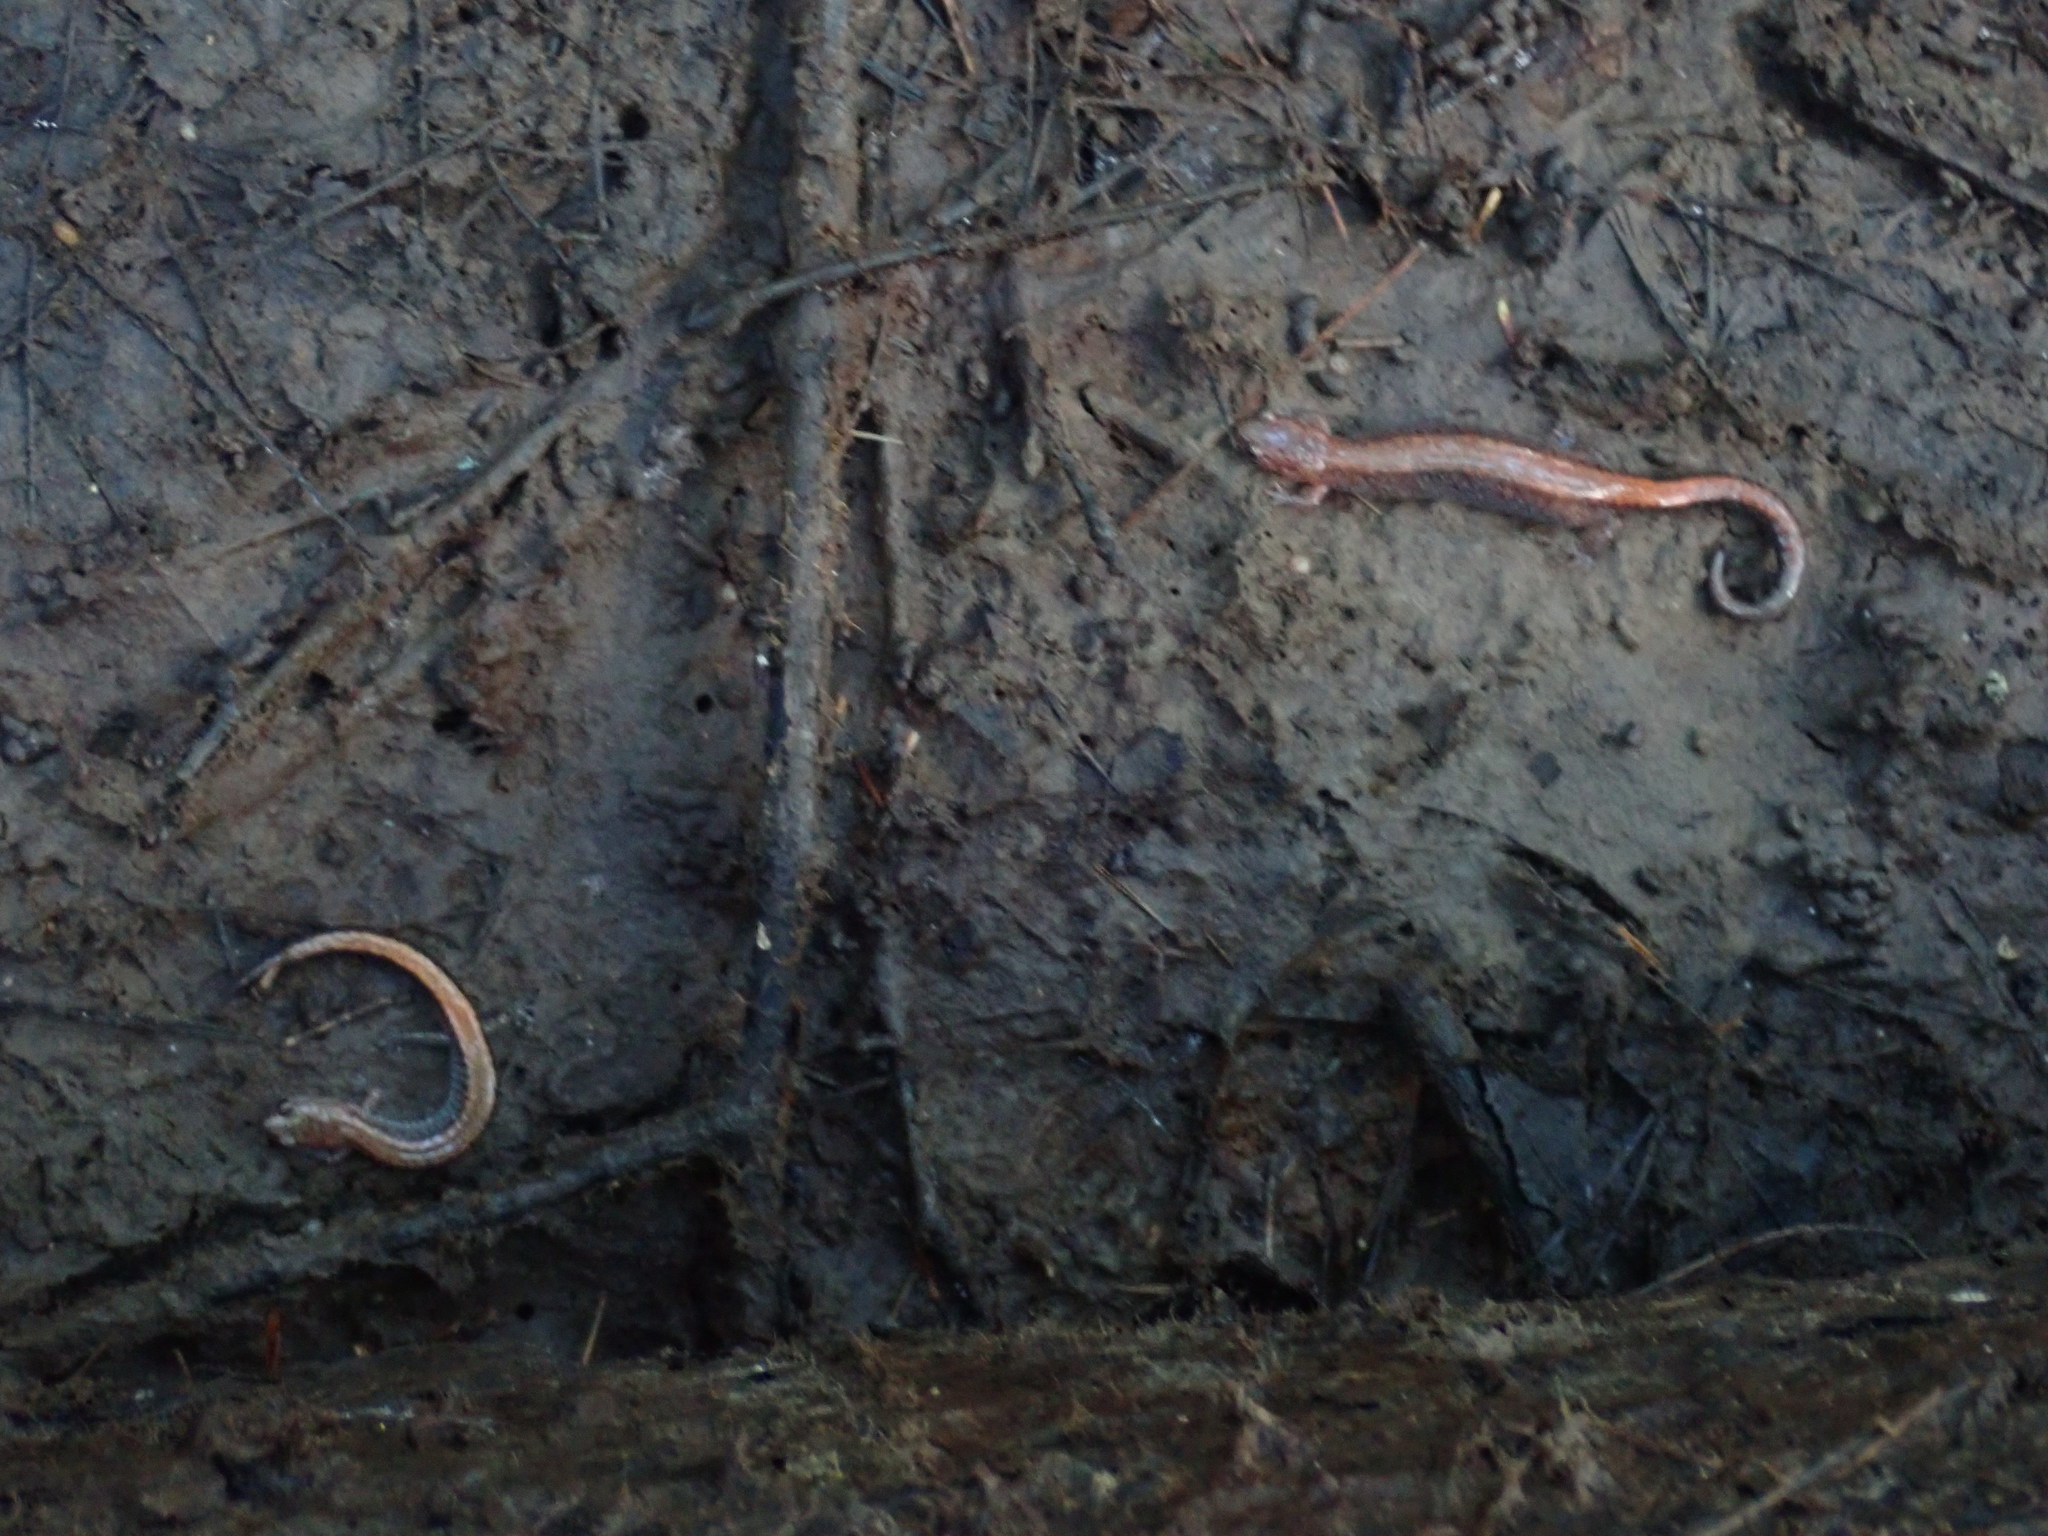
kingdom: Animalia
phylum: Chordata
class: Amphibia
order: Caudata
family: Plethodontidae
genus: Plethodon
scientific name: Plethodon cinereus
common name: Redback salamander
